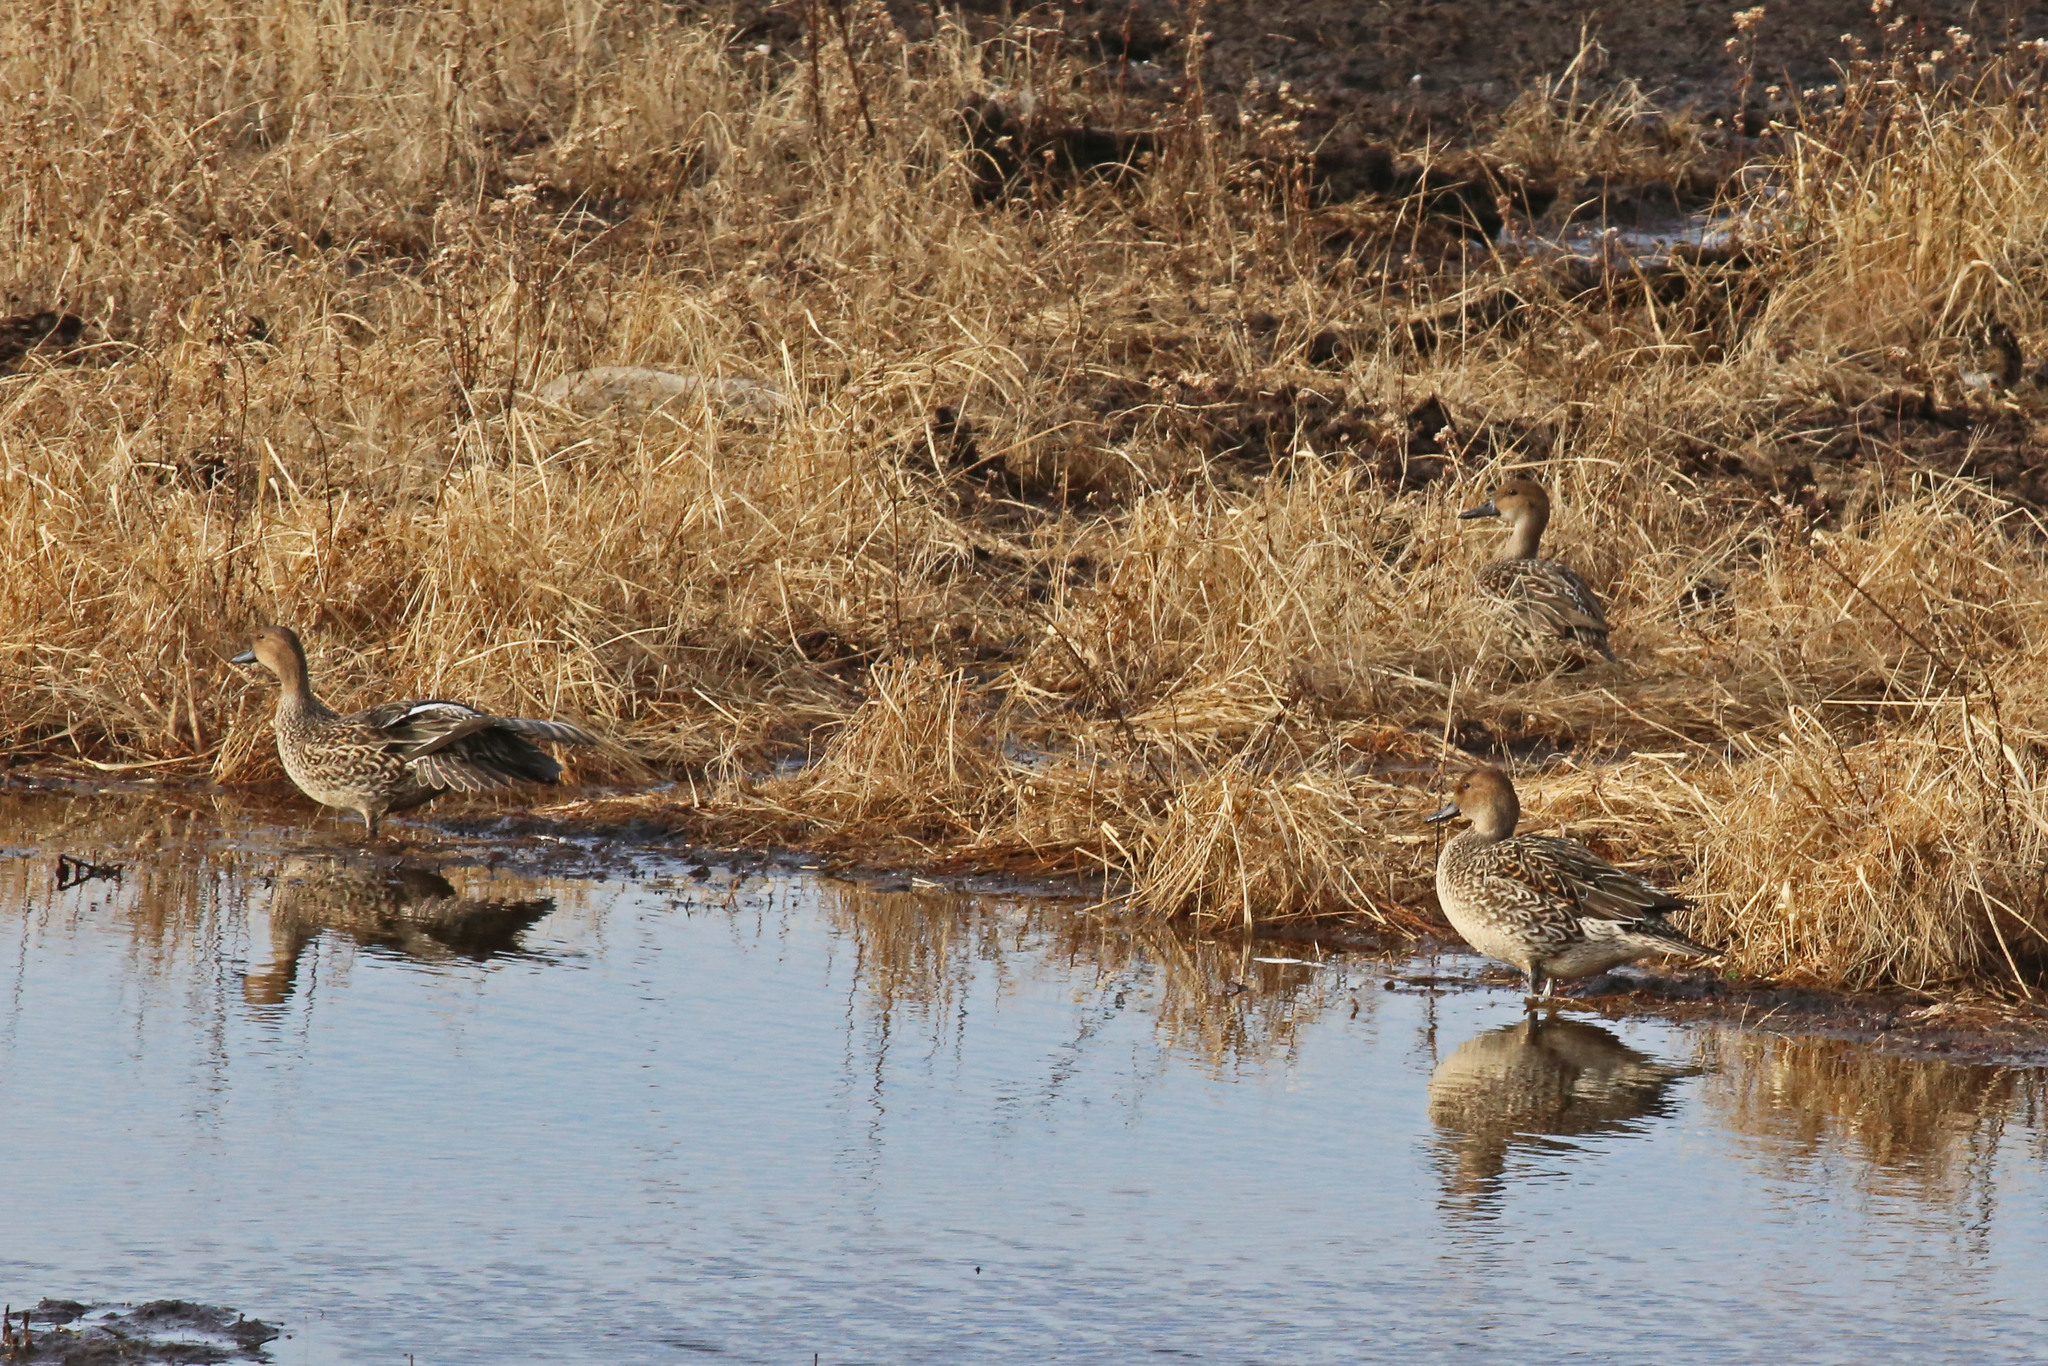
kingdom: Animalia
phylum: Chordata
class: Aves
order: Anseriformes
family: Anatidae
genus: Anas
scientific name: Anas acuta
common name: Northern pintail
